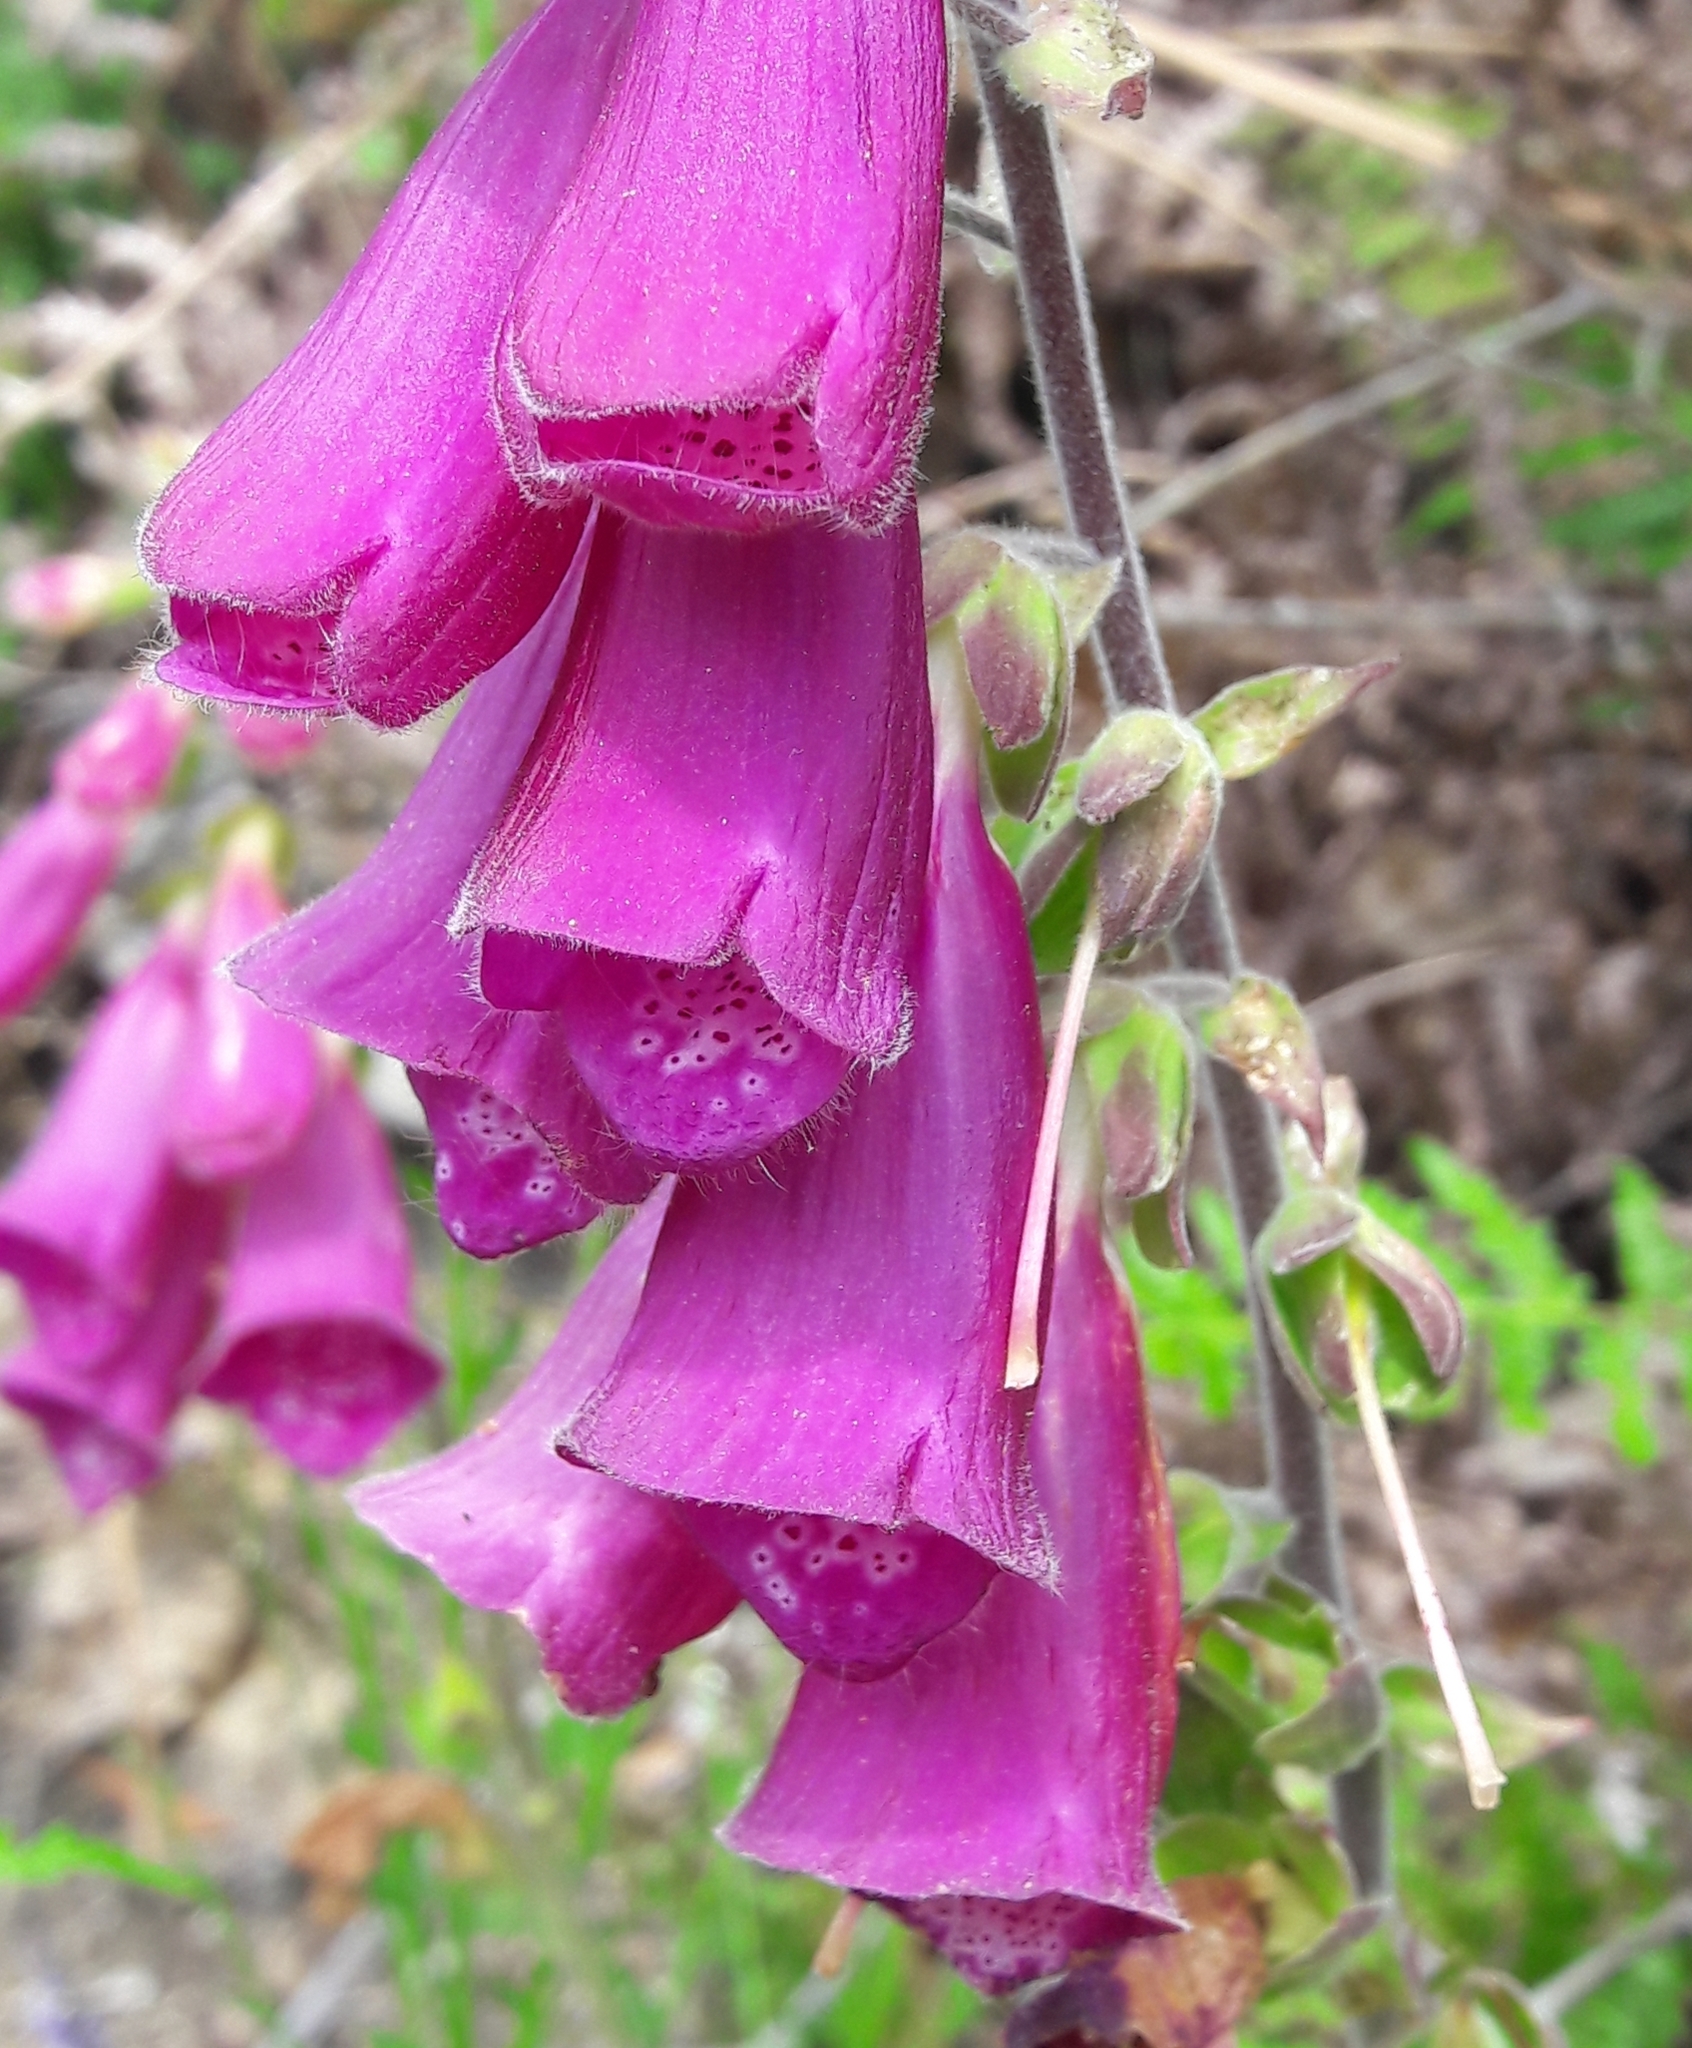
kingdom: Plantae
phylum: Tracheophyta
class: Magnoliopsida
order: Lamiales
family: Plantaginaceae
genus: Digitalis
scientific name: Digitalis purpurea
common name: Foxglove
